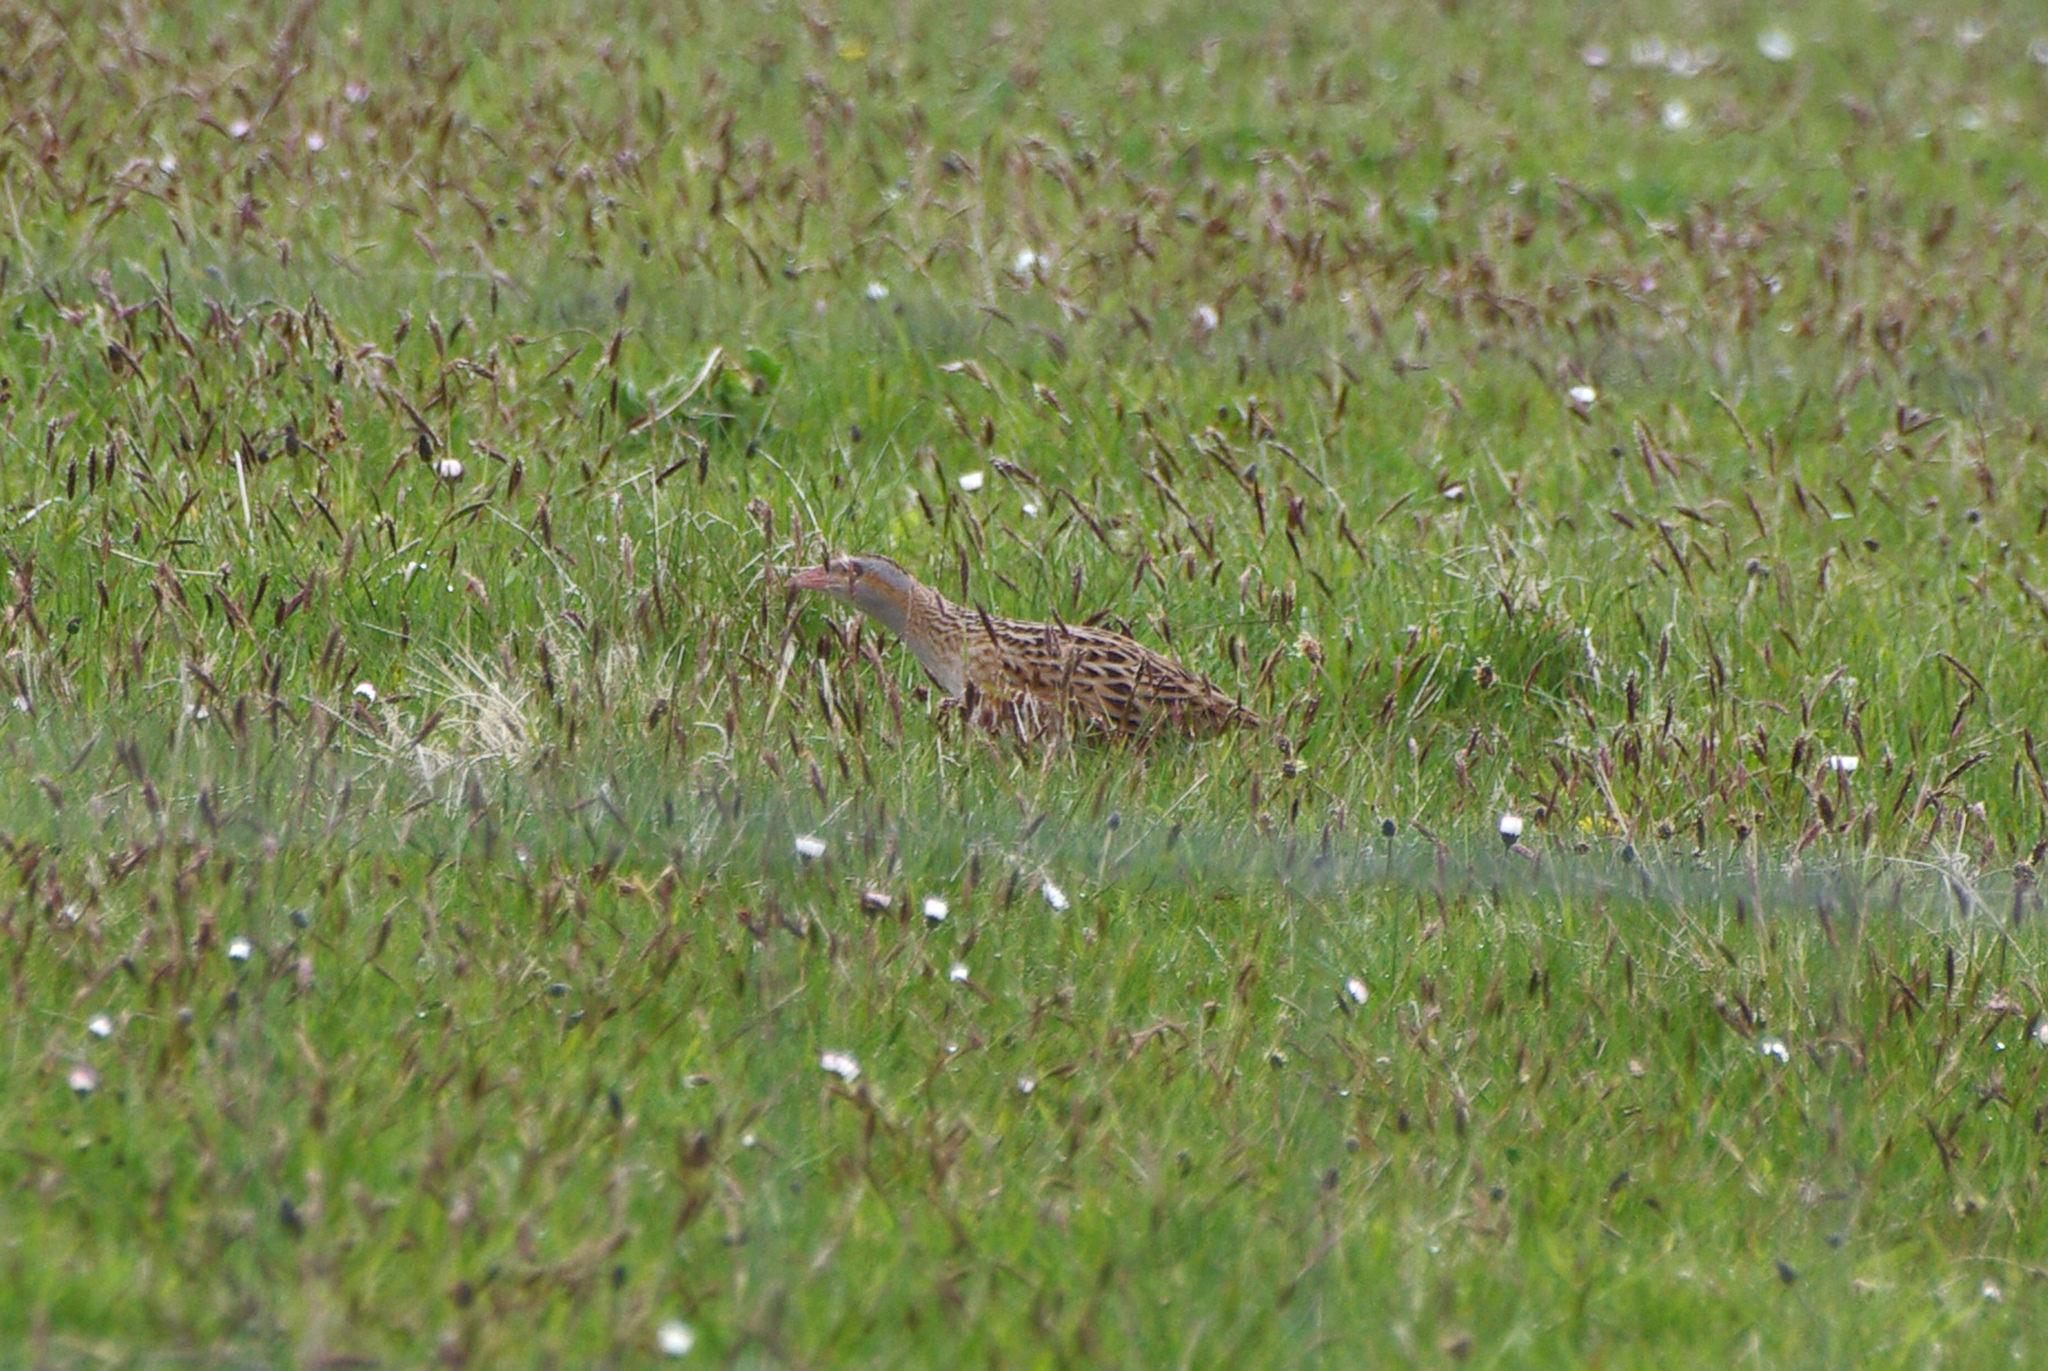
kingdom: Animalia
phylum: Chordata
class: Aves
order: Gruiformes
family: Rallidae
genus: Crex
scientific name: Crex crex
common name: Corn crake
